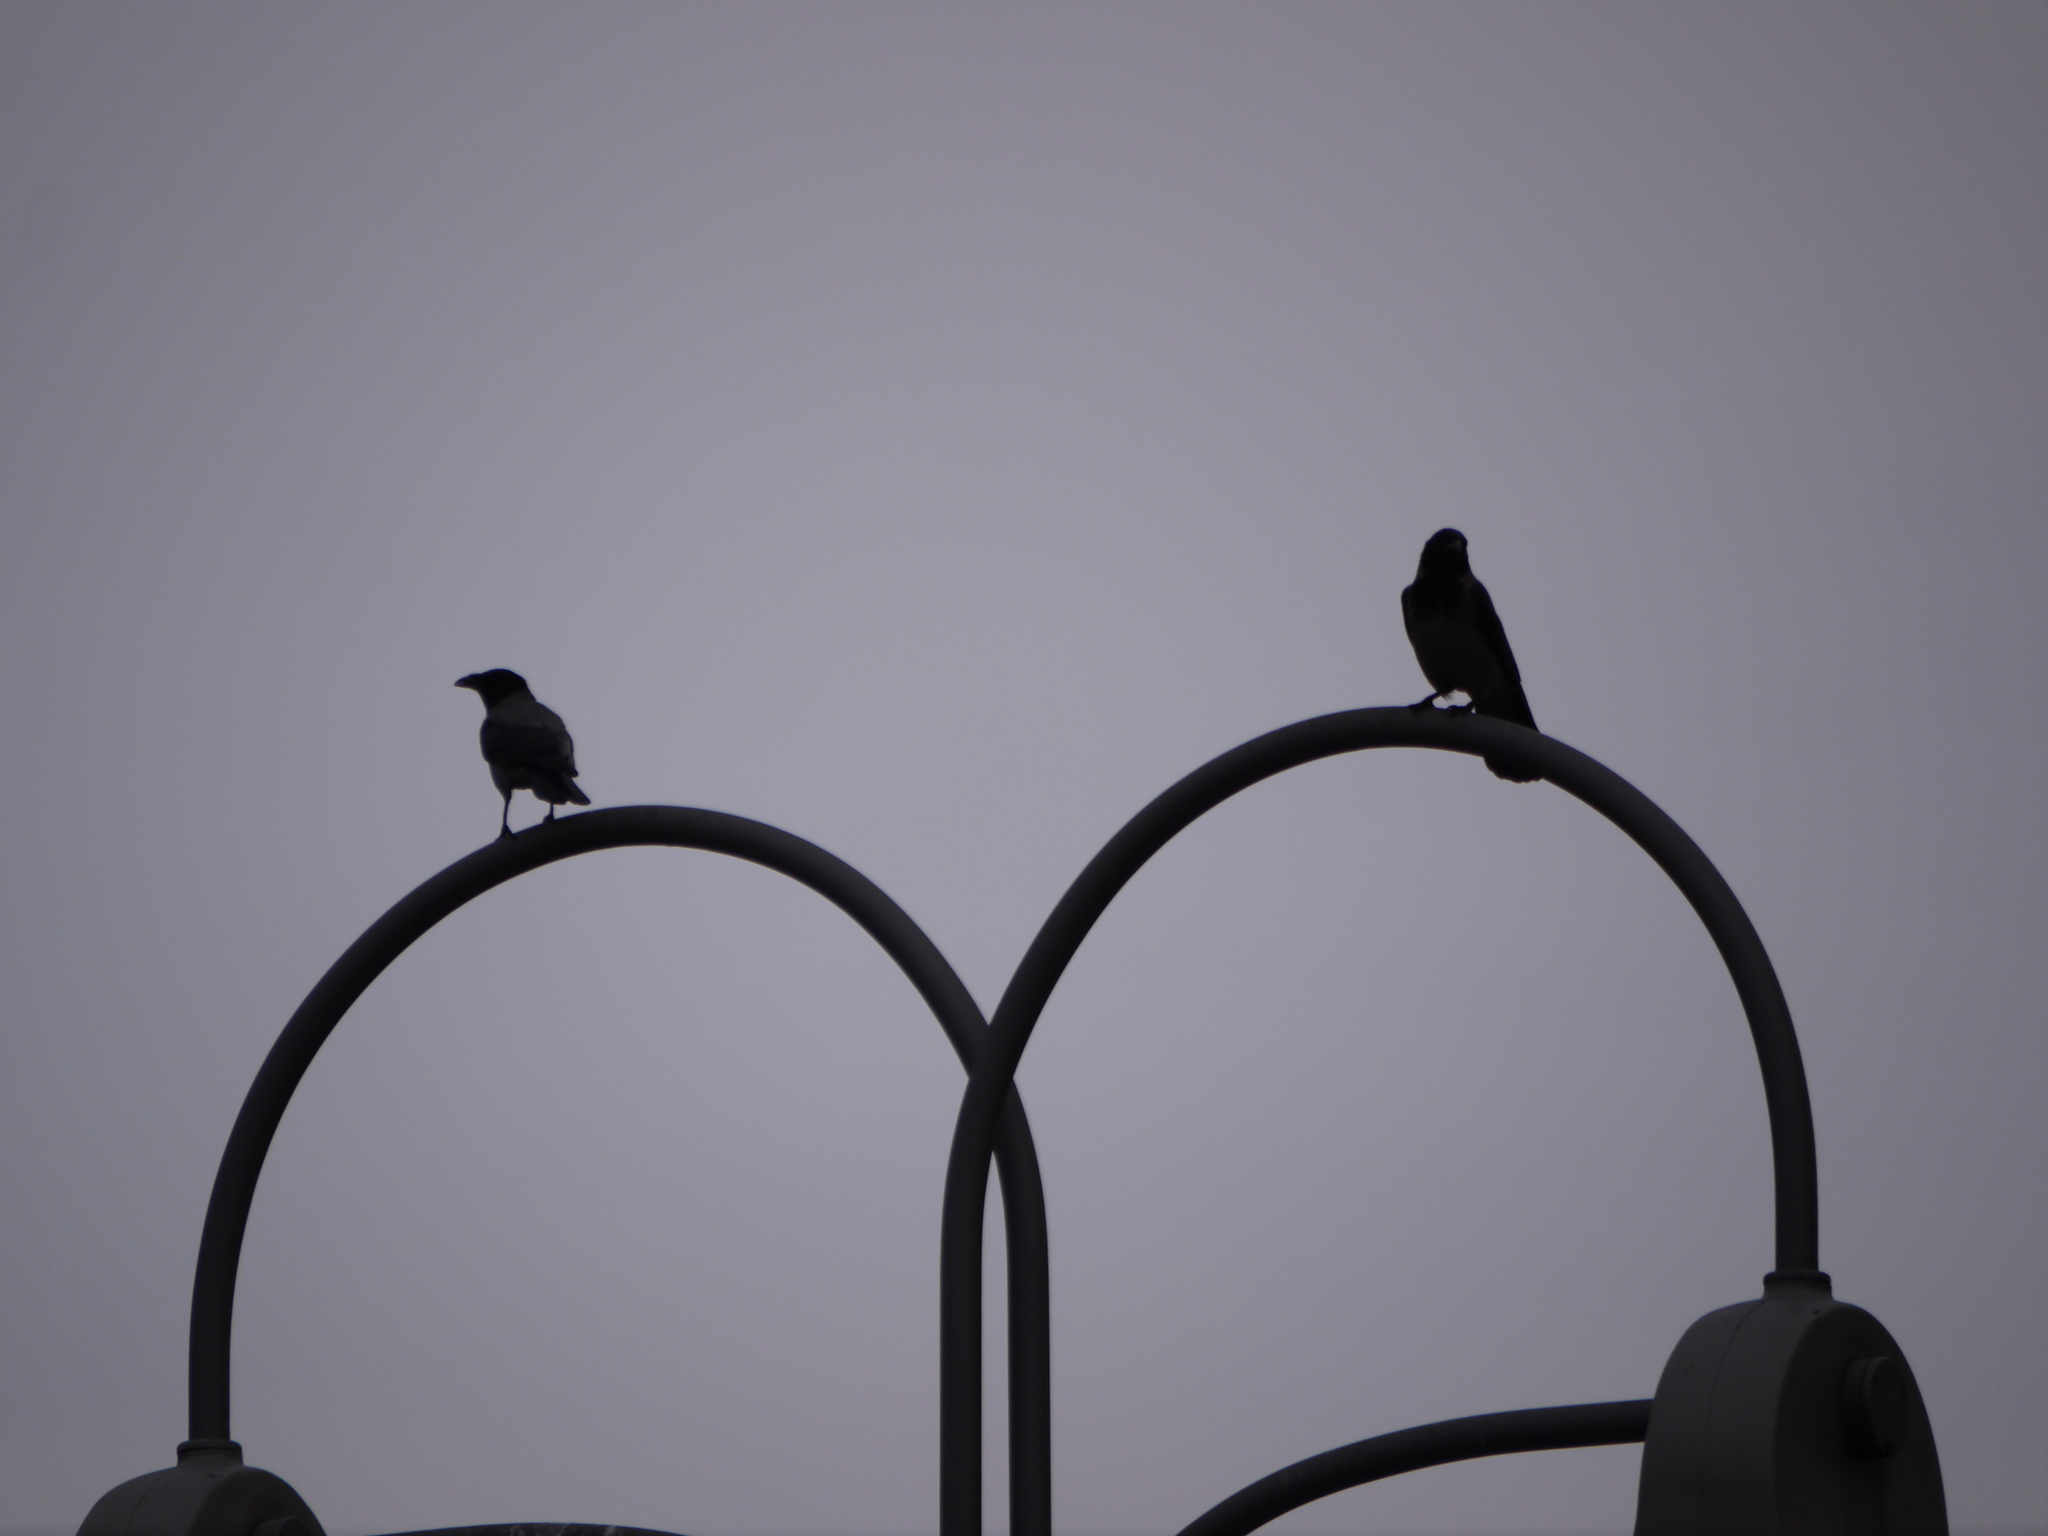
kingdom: Animalia
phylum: Chordata
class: Aves
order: Passeriformes
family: Corvidae
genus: Corvus
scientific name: Corvus cornix
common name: Hooded crow
